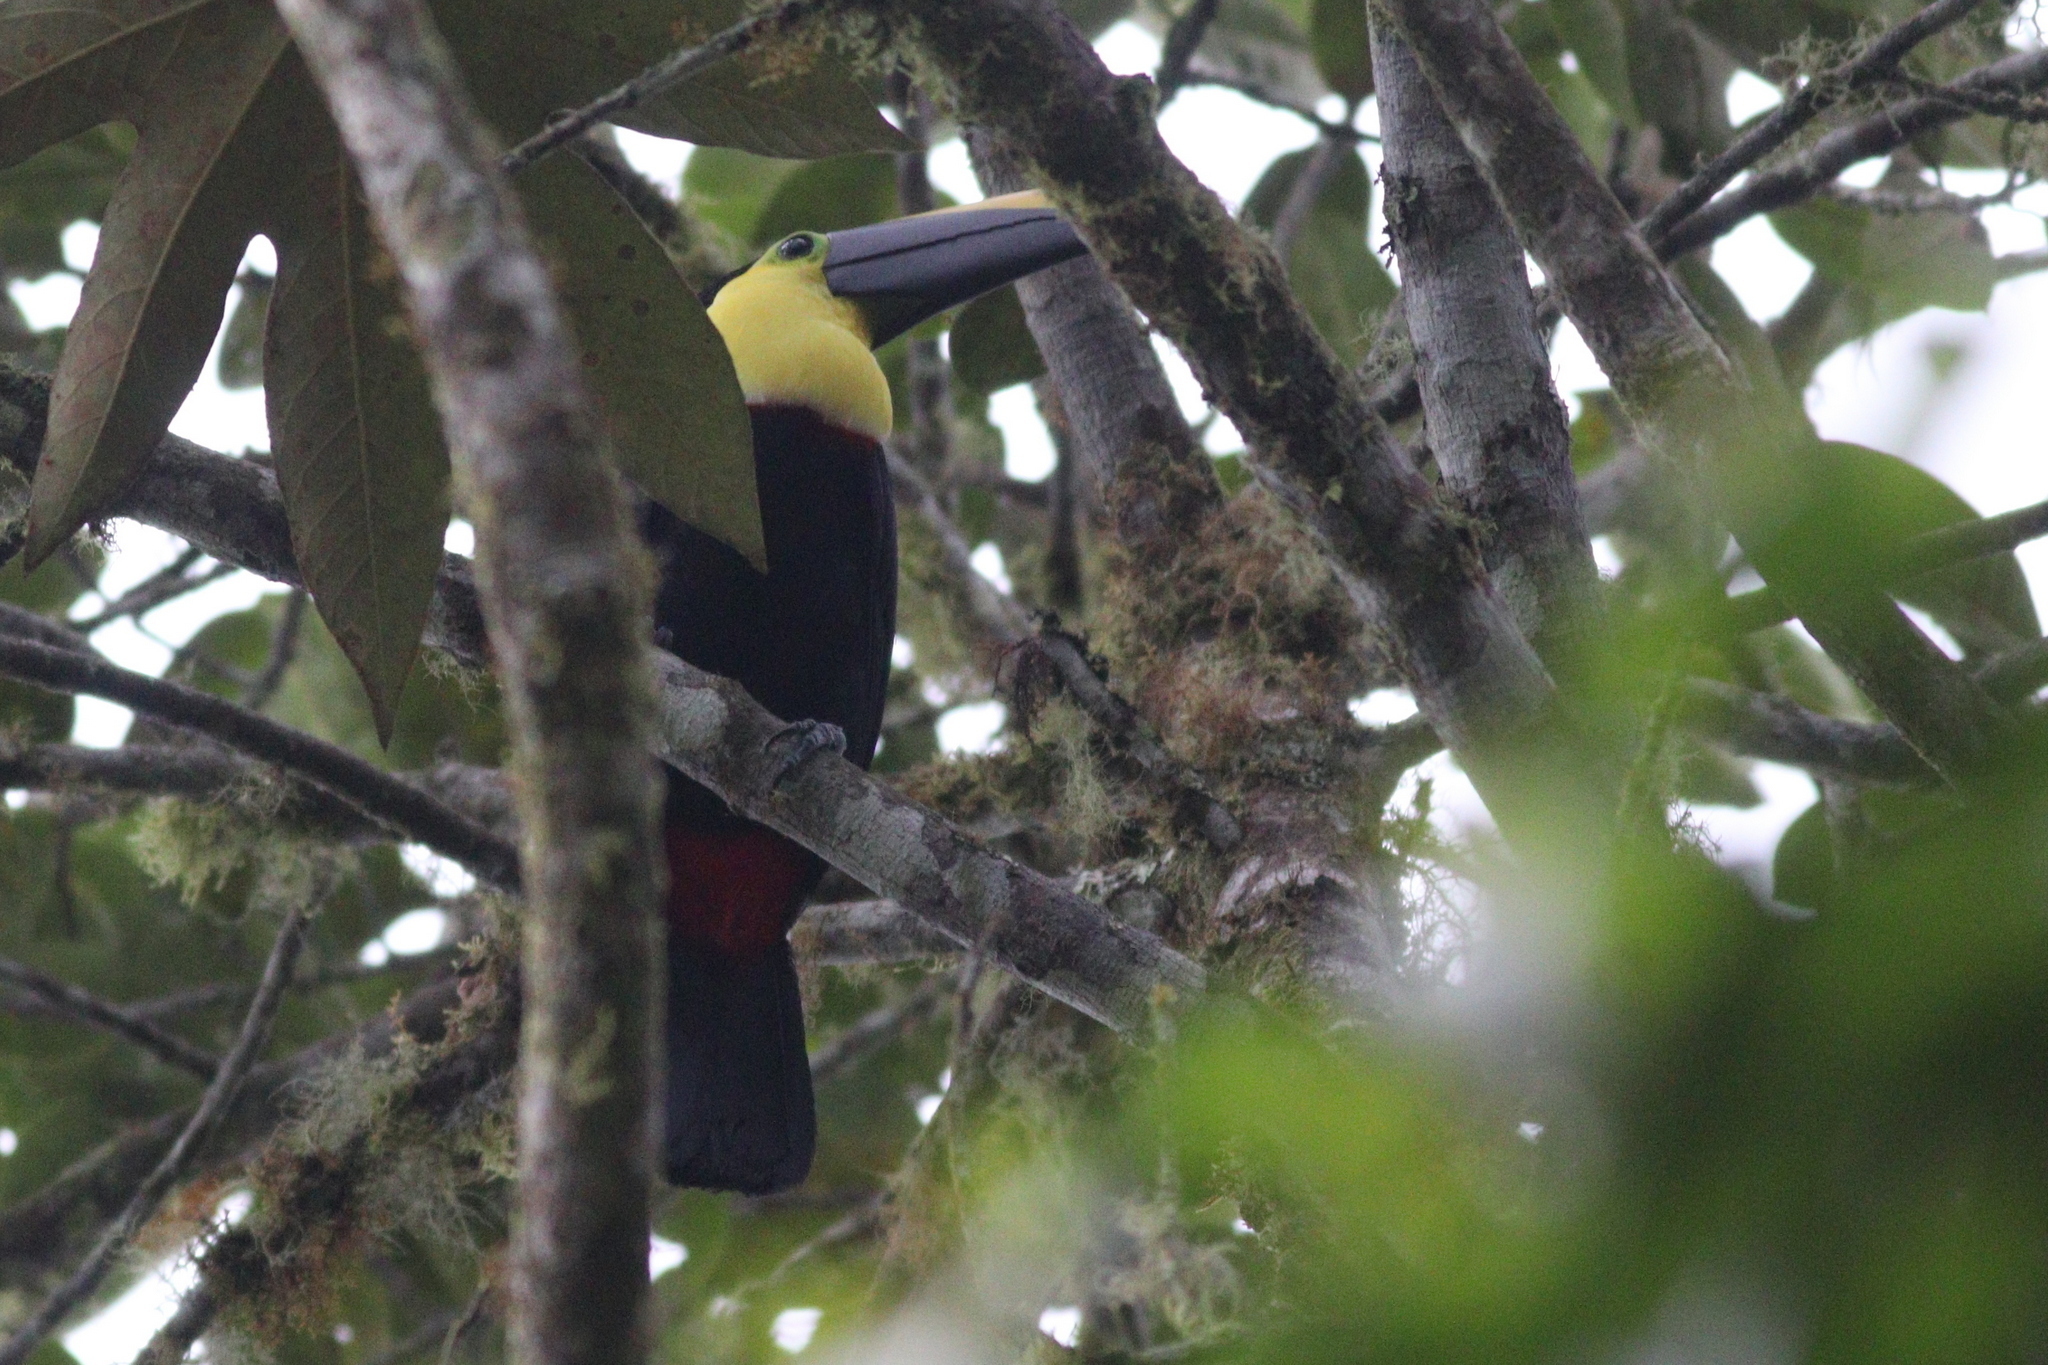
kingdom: Animalia
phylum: Chordata
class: Aves
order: Piciformes
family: Ramphastidae
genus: Ramphastos
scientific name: Ramphastos brevis
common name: Choco toucan
